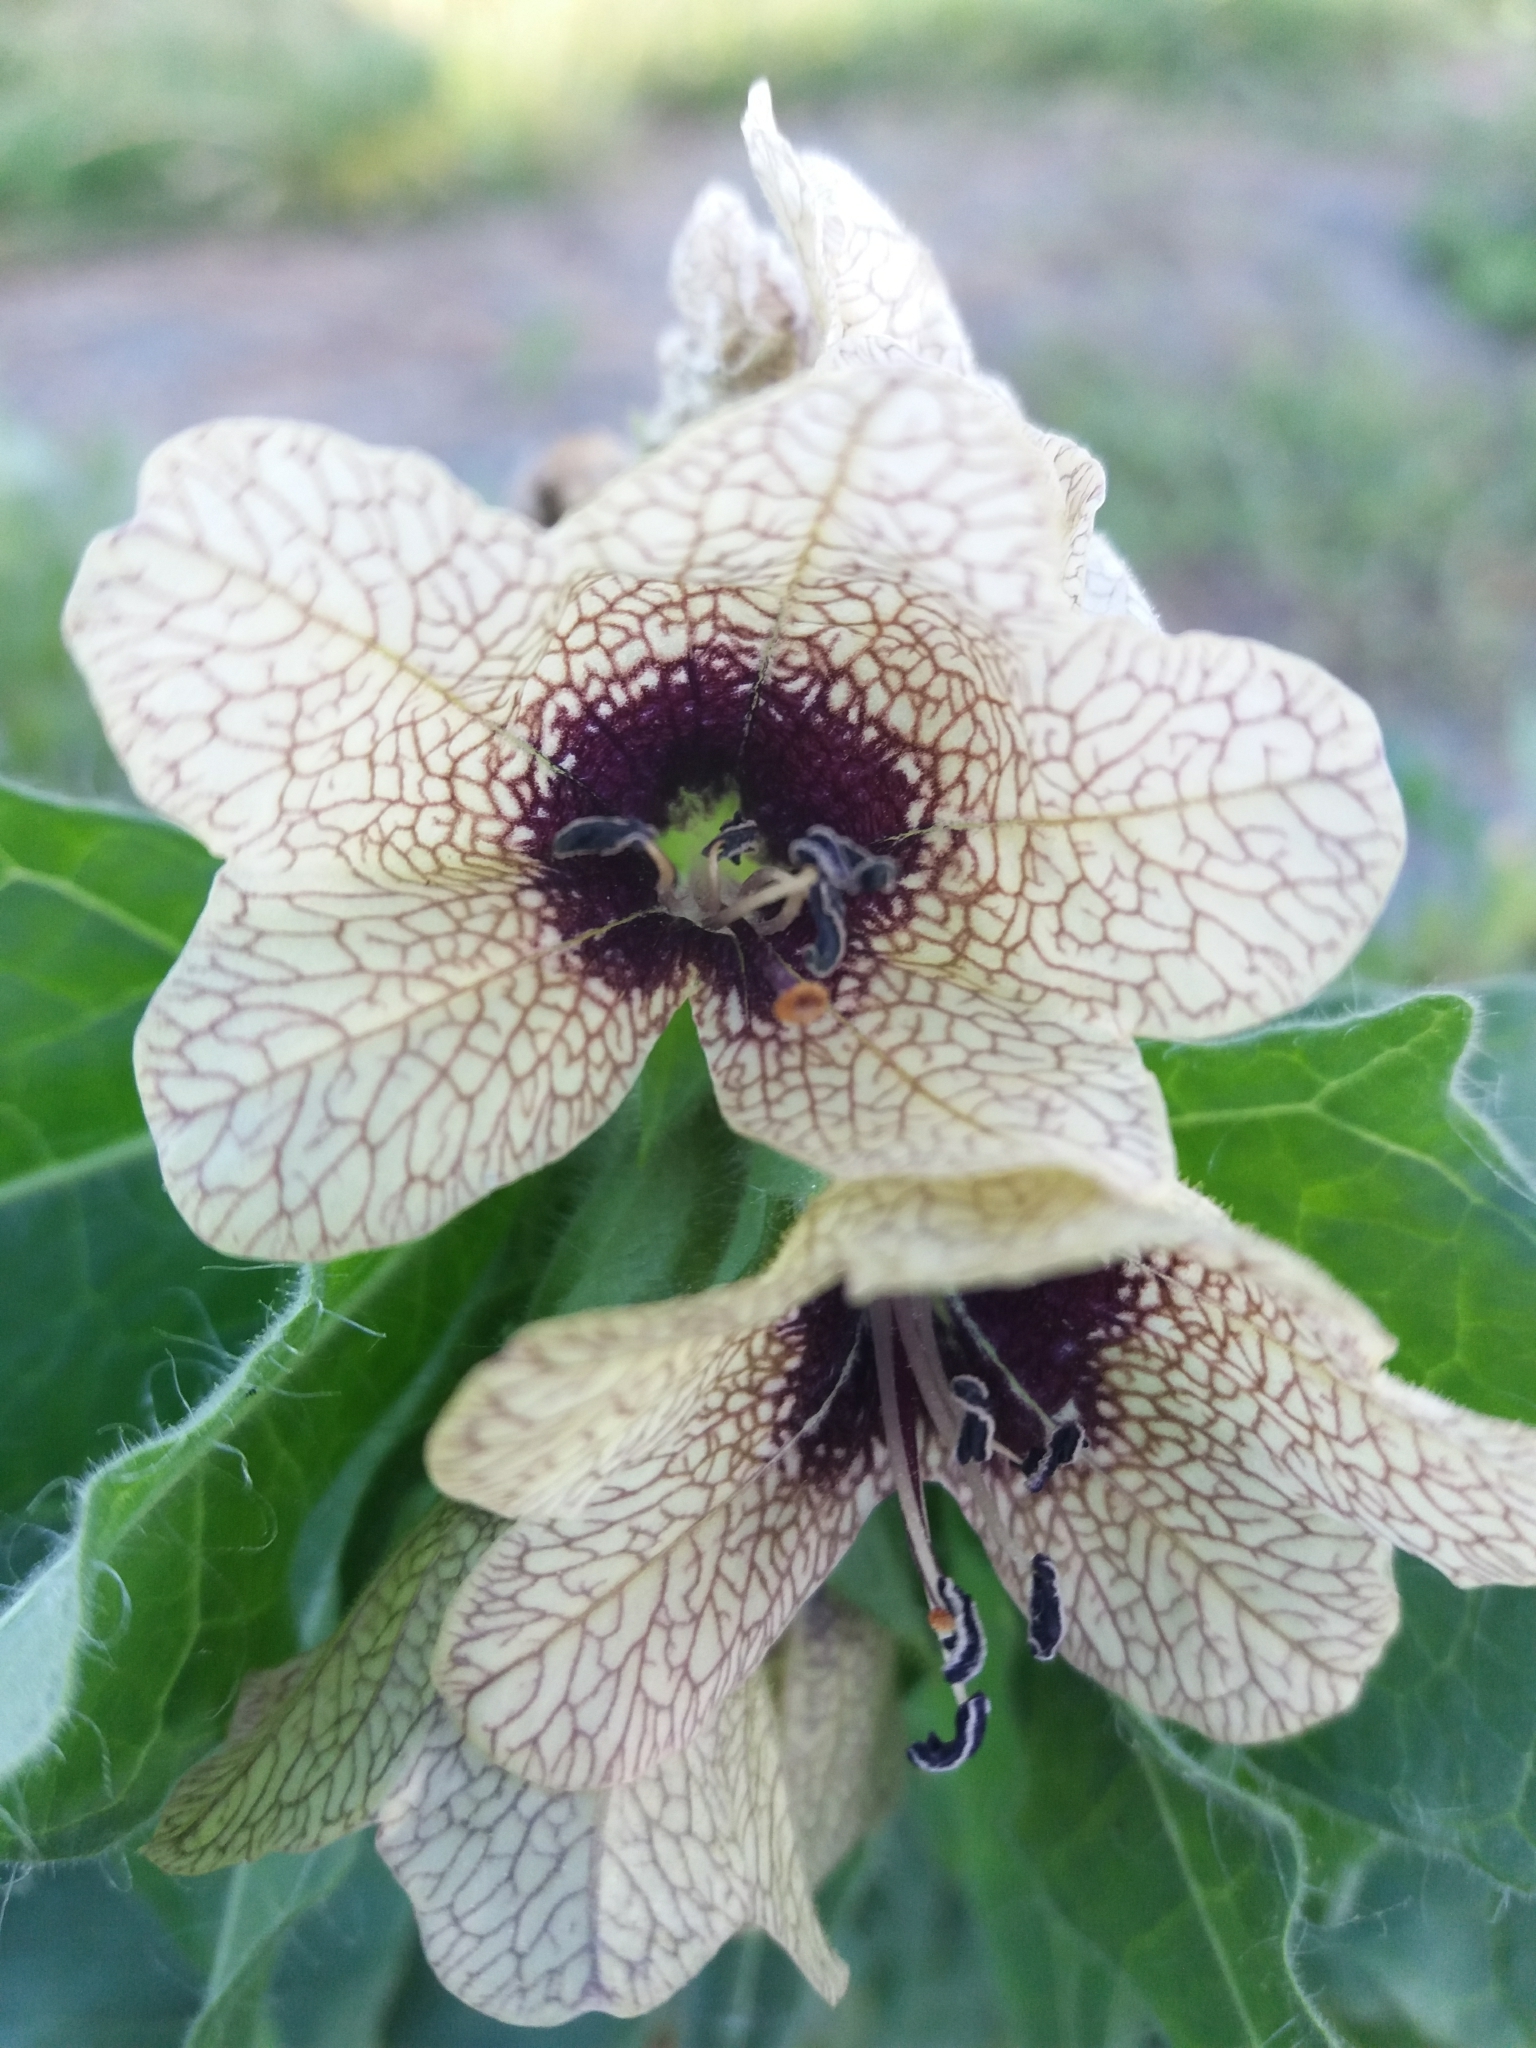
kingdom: Plantae
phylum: Tracheophyta
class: Magnoliopsida
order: Solanales
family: Solanaceae
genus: Hyoscyamus
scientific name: Hyoscyamus niger
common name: Henbane
